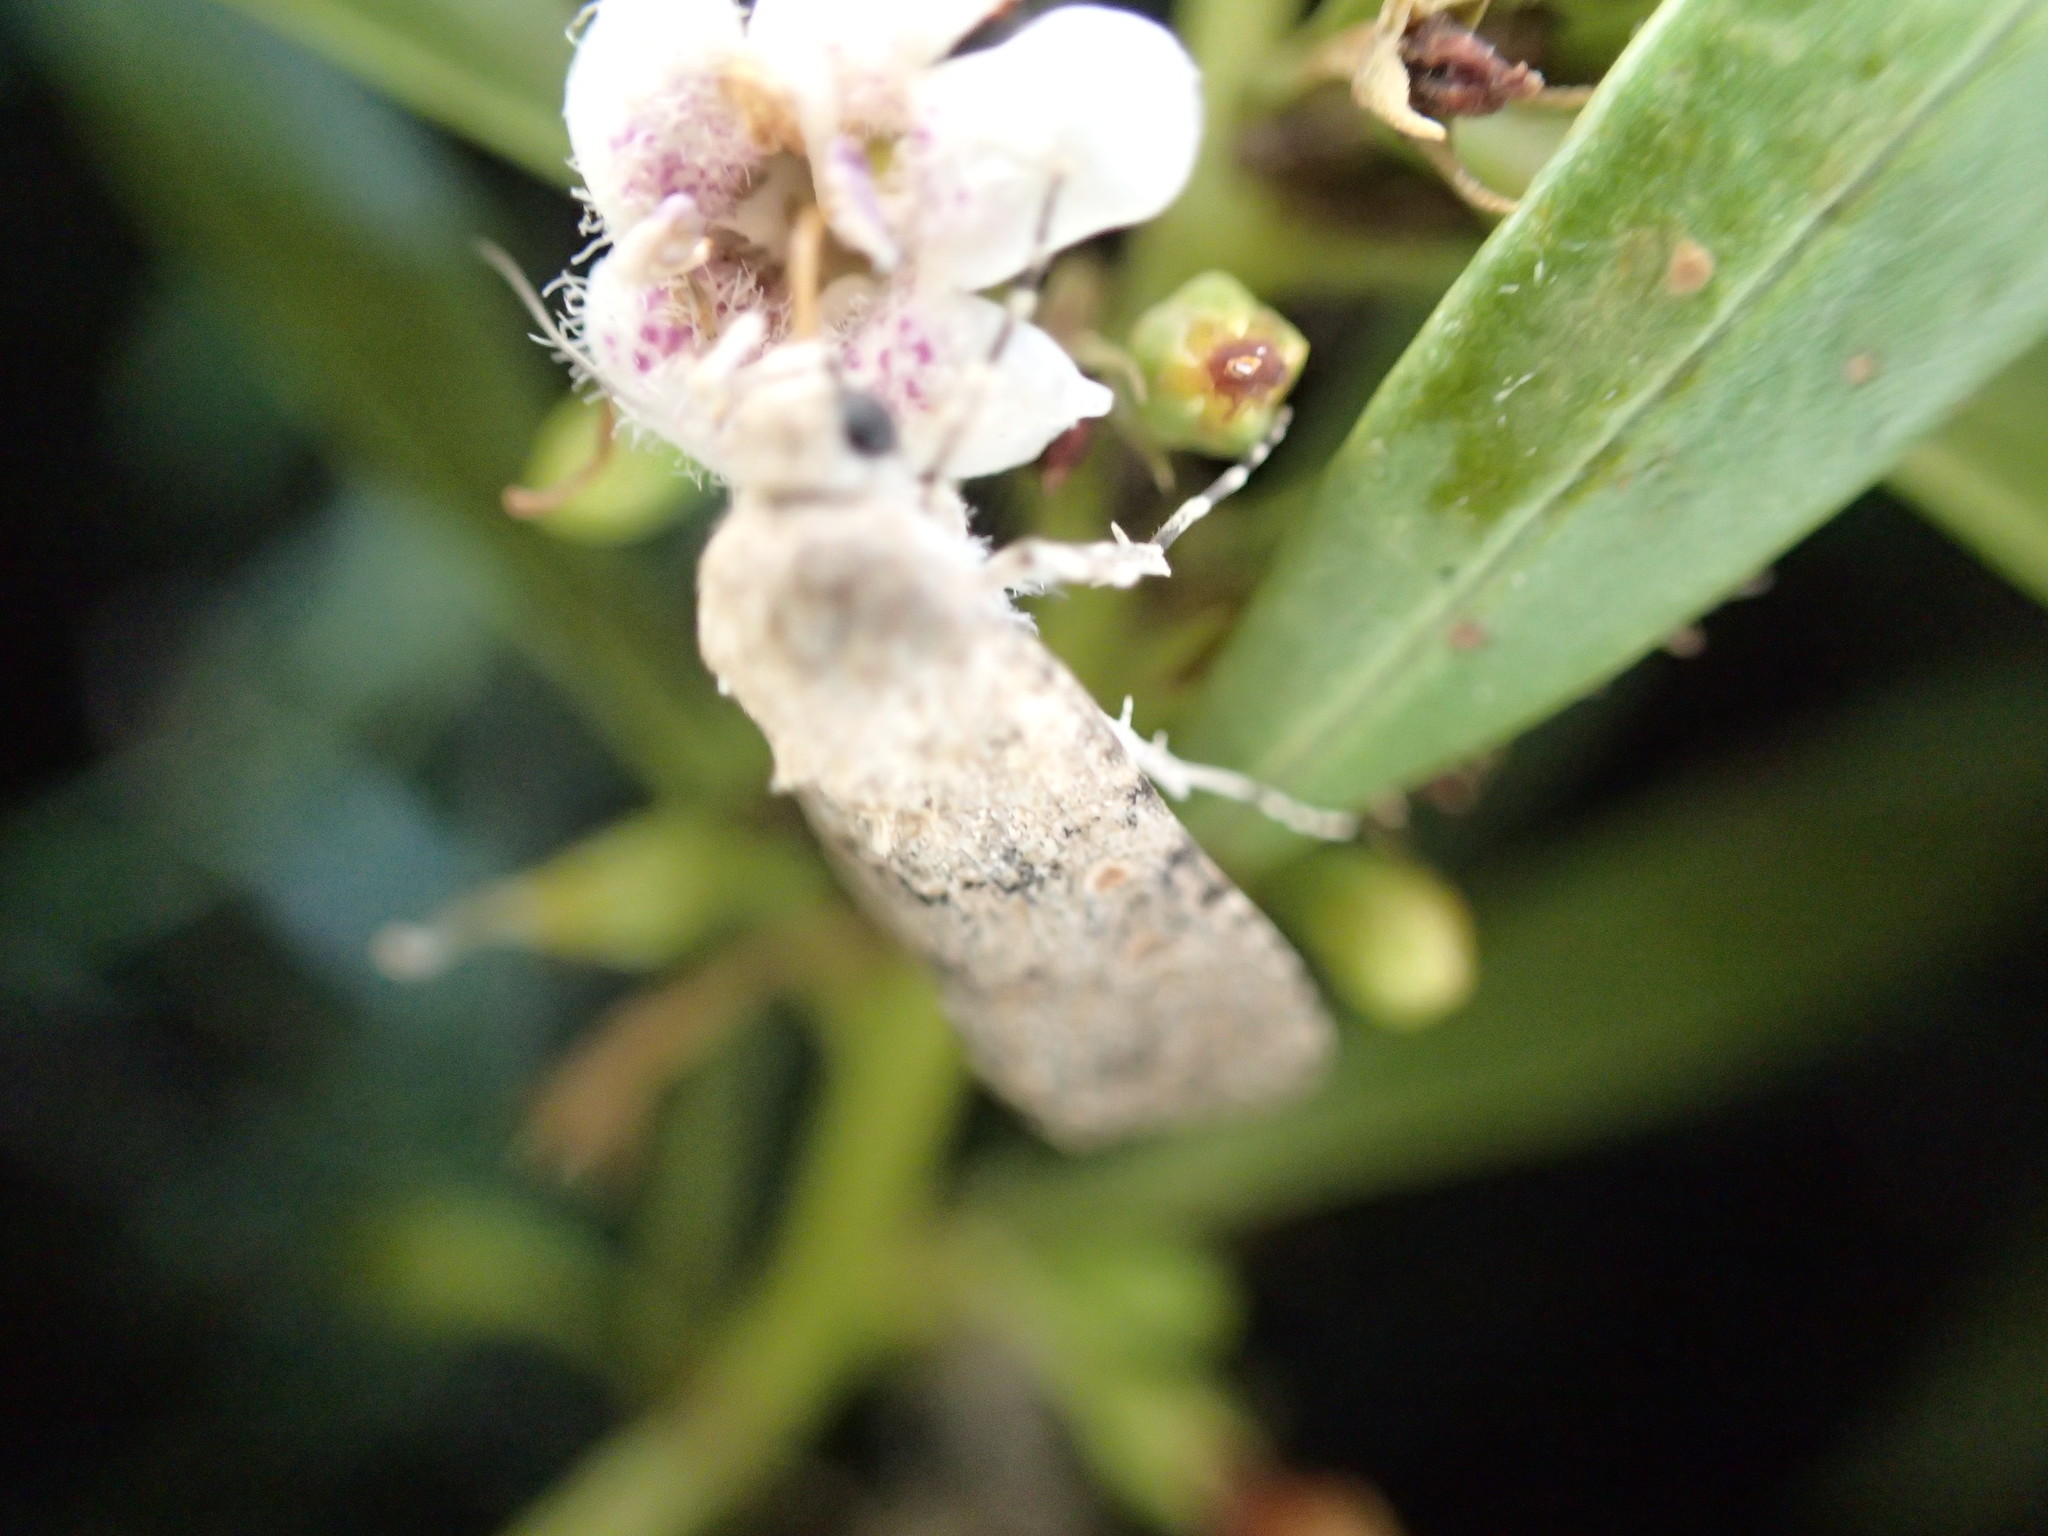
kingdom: Animalia
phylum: Arthropoda
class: Insecta
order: Lepidoptera
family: Noctuidae
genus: Spodoptera
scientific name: Spodoptera exigua
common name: Beet armyworm
